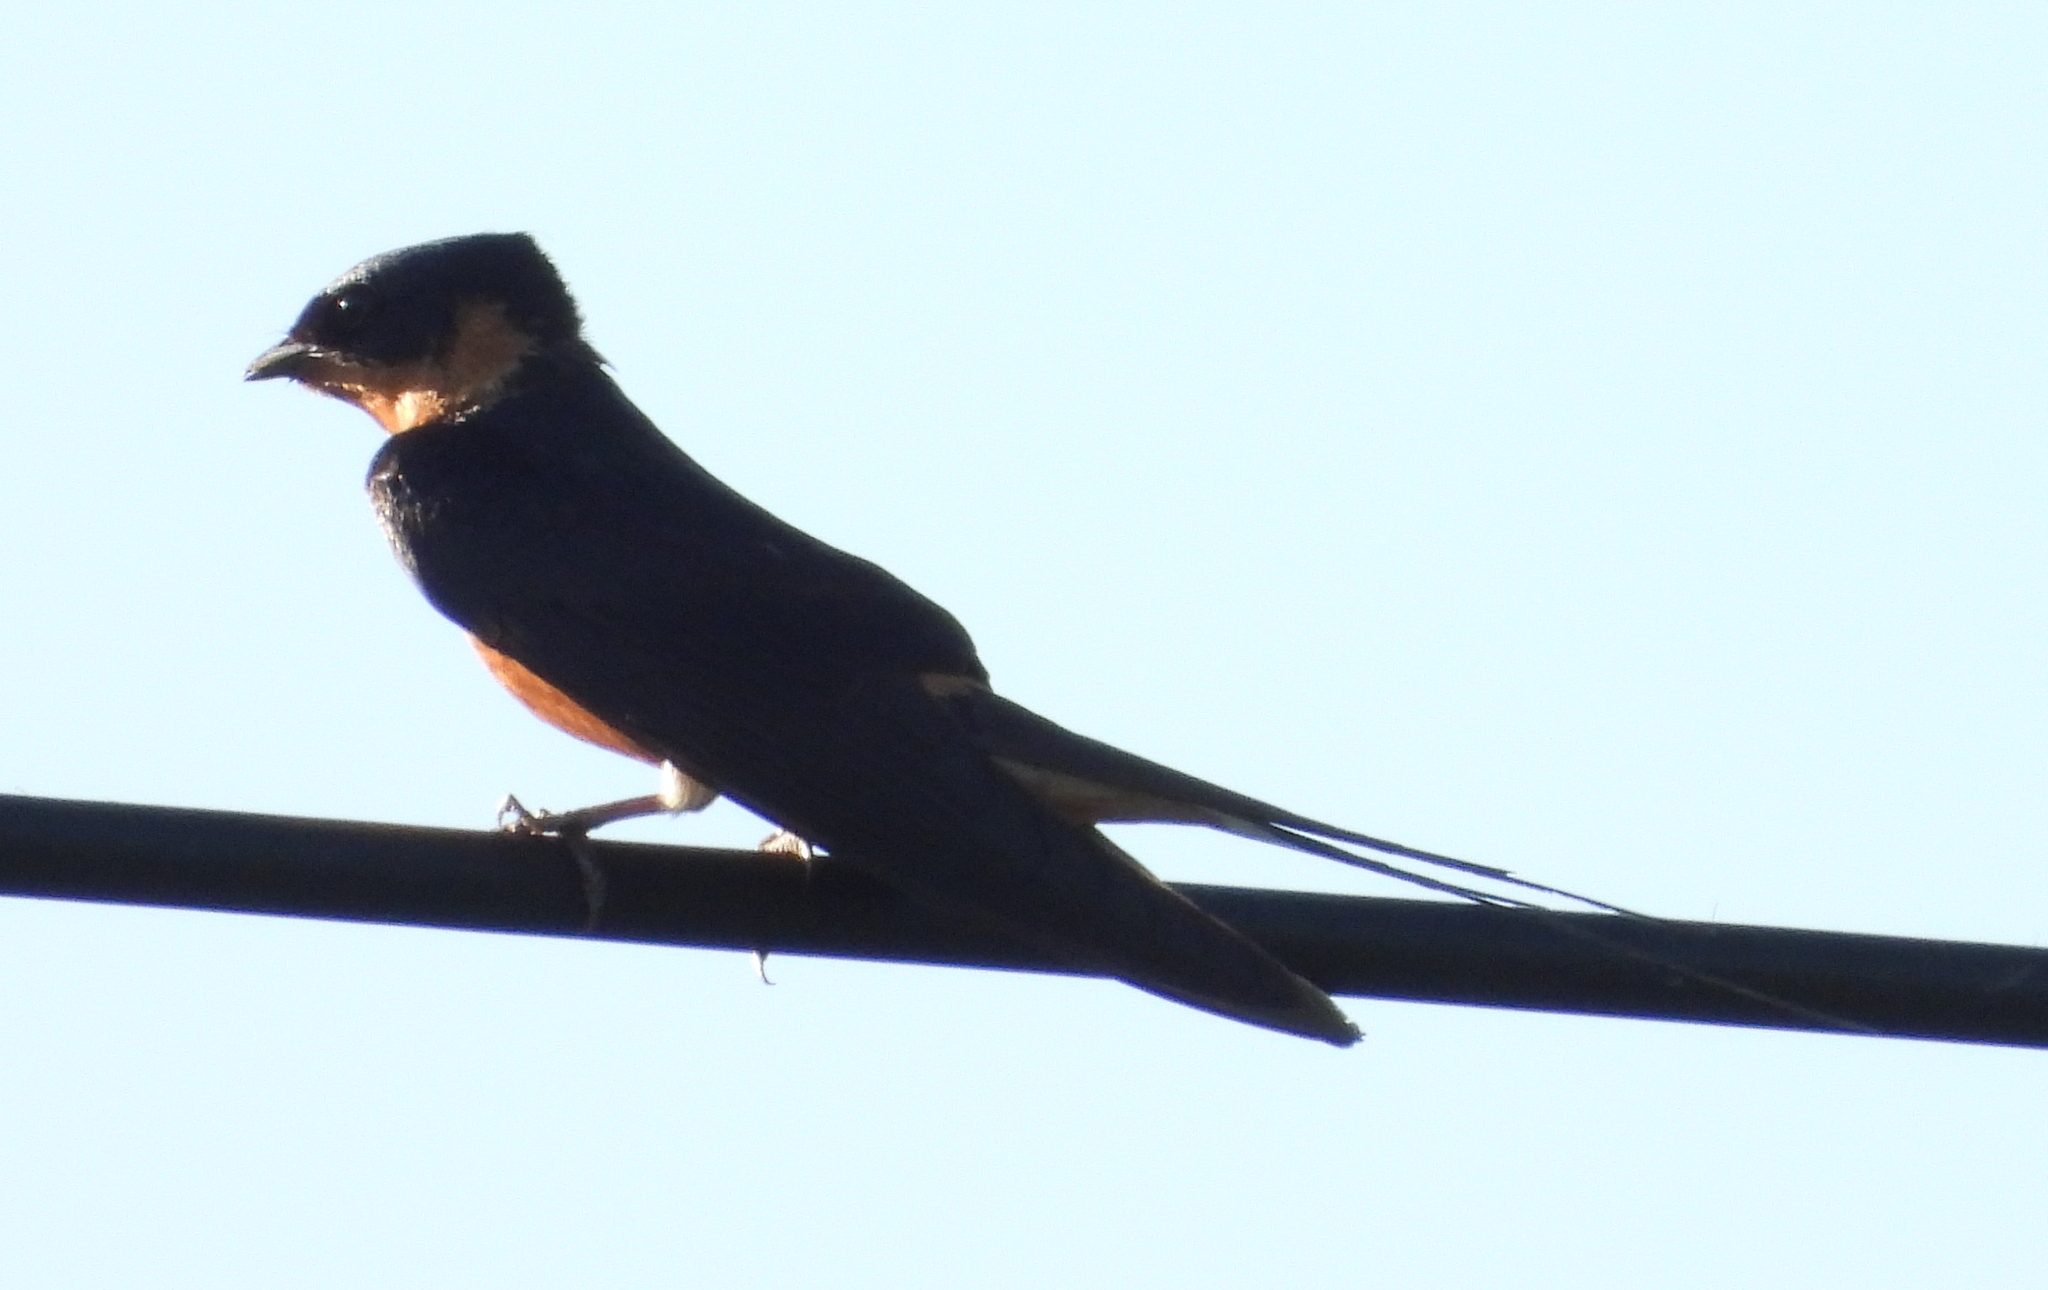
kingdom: Animalia
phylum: Chordata
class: Aves
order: Passeriformes
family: Hirundinidae
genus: Cecropis
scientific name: Cecropis semirufa
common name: Red-breasted swallow
